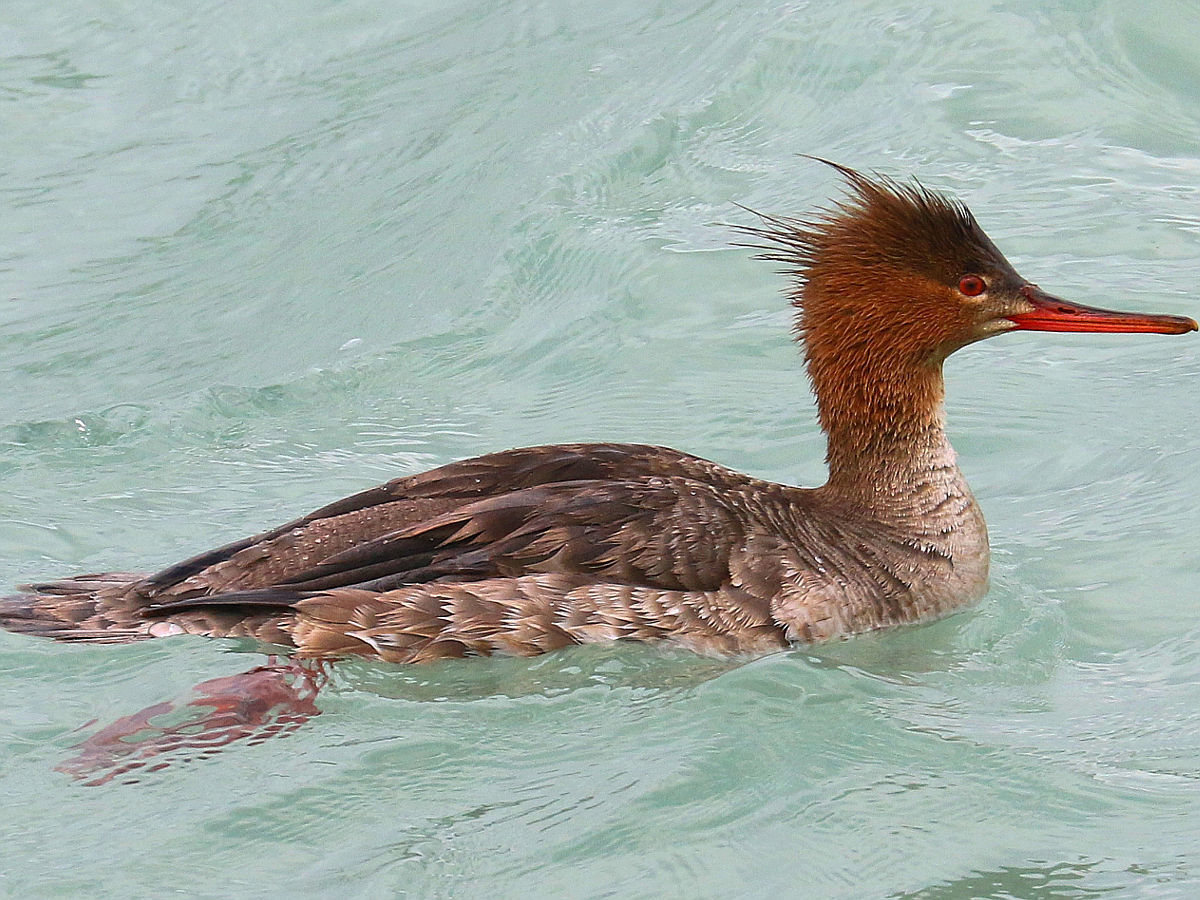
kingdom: Animalia
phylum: Chordata
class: Aves
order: Anseriformes
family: Anatidae
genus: Mergus
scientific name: Mergus serrator
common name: Red-breasted merganser
